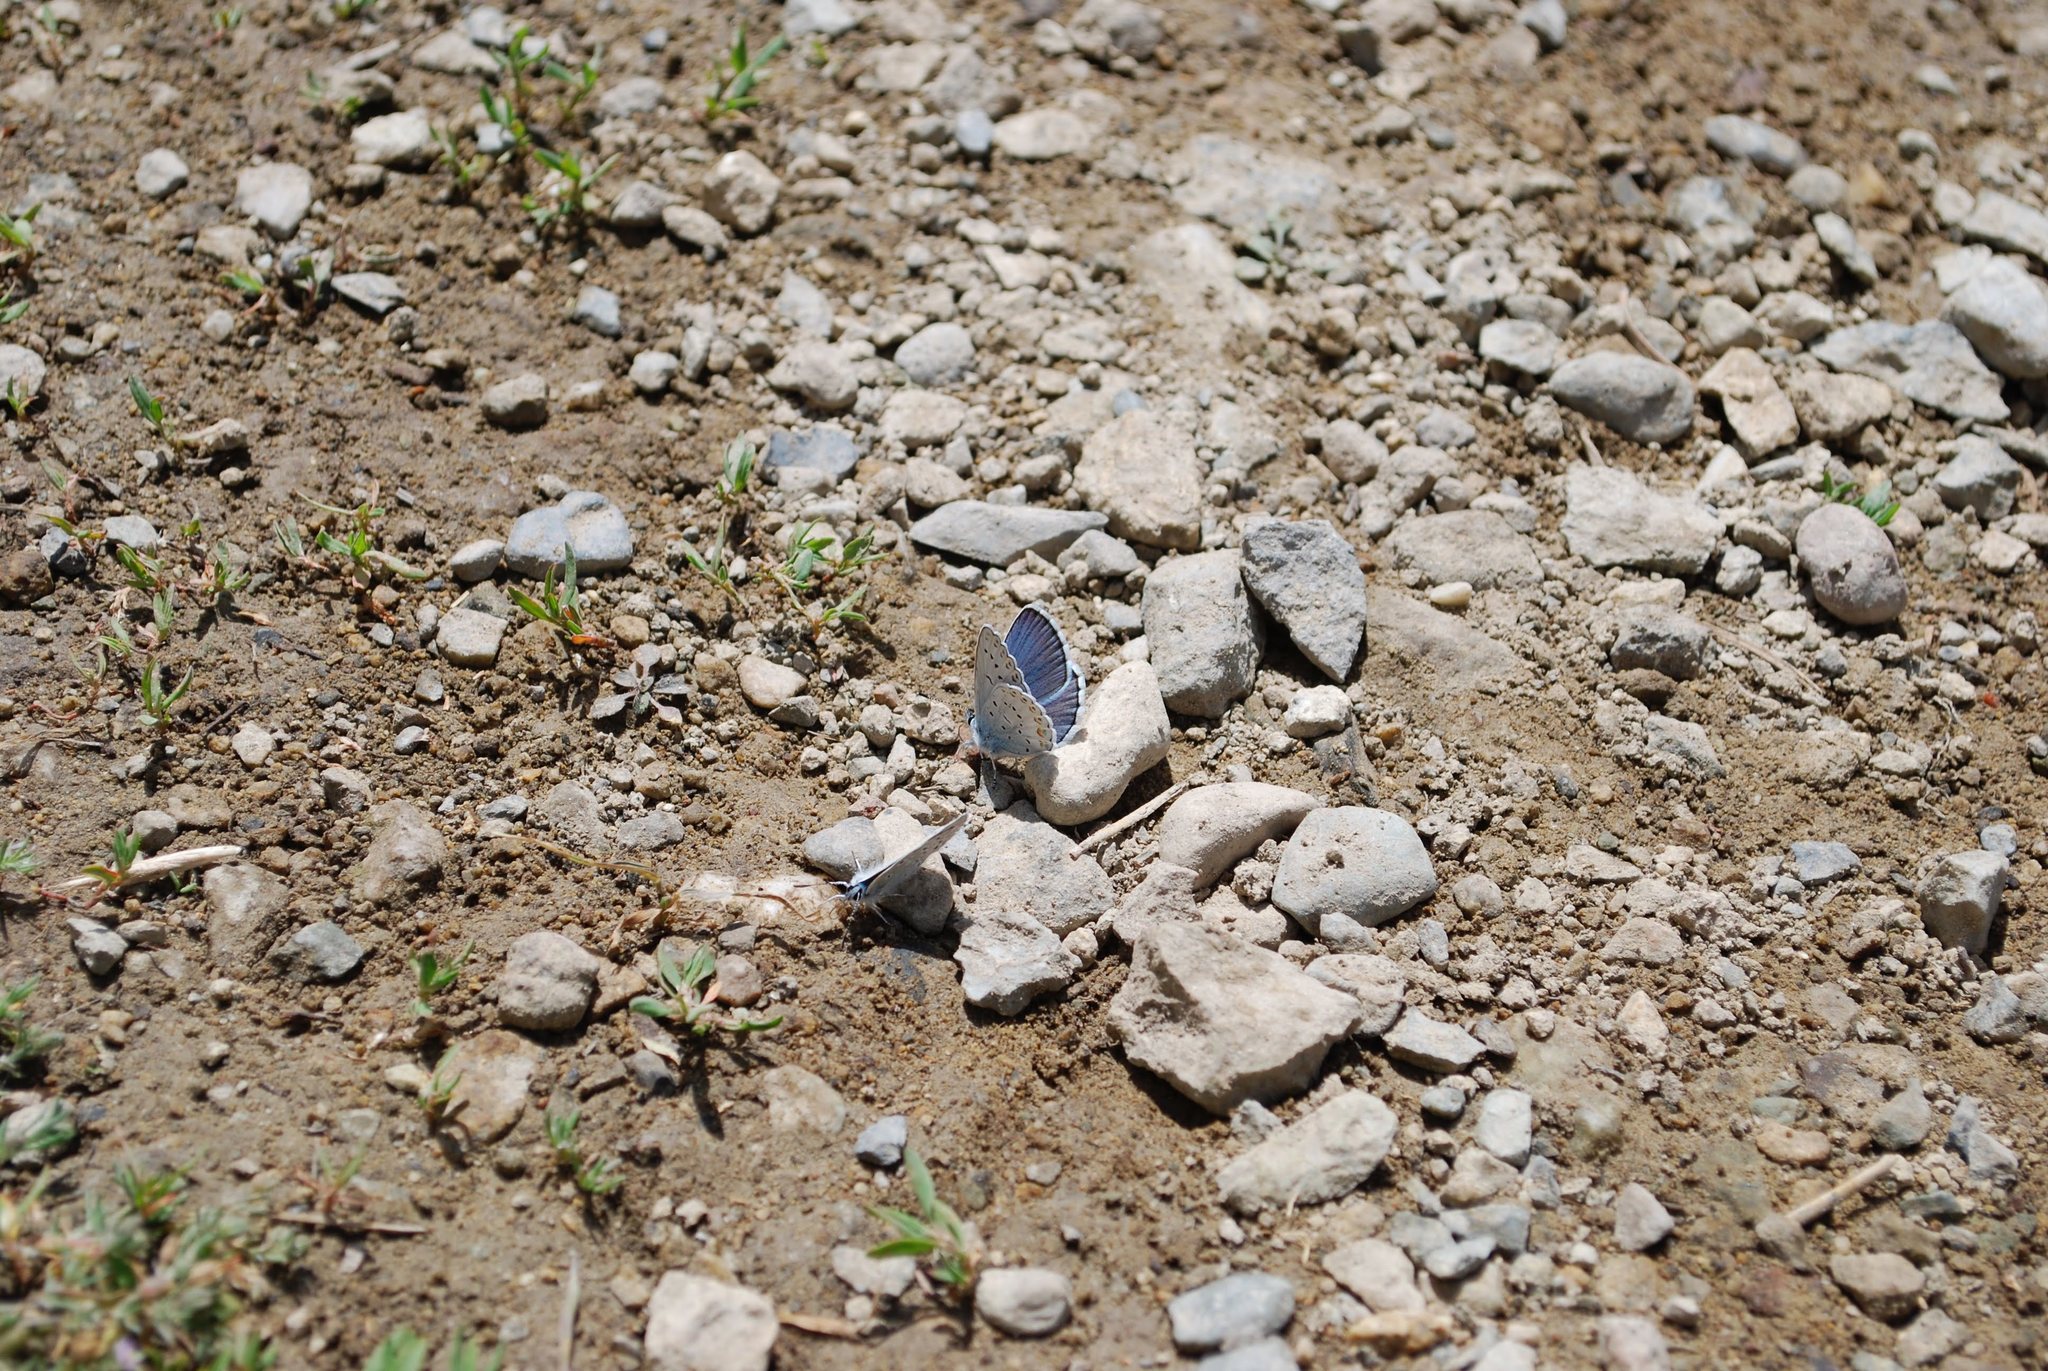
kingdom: Animalia
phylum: Arthropoda
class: Insecta
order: Lepidoptera
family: Lycaenidae
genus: Lycaeides
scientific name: Lycaeides anna
